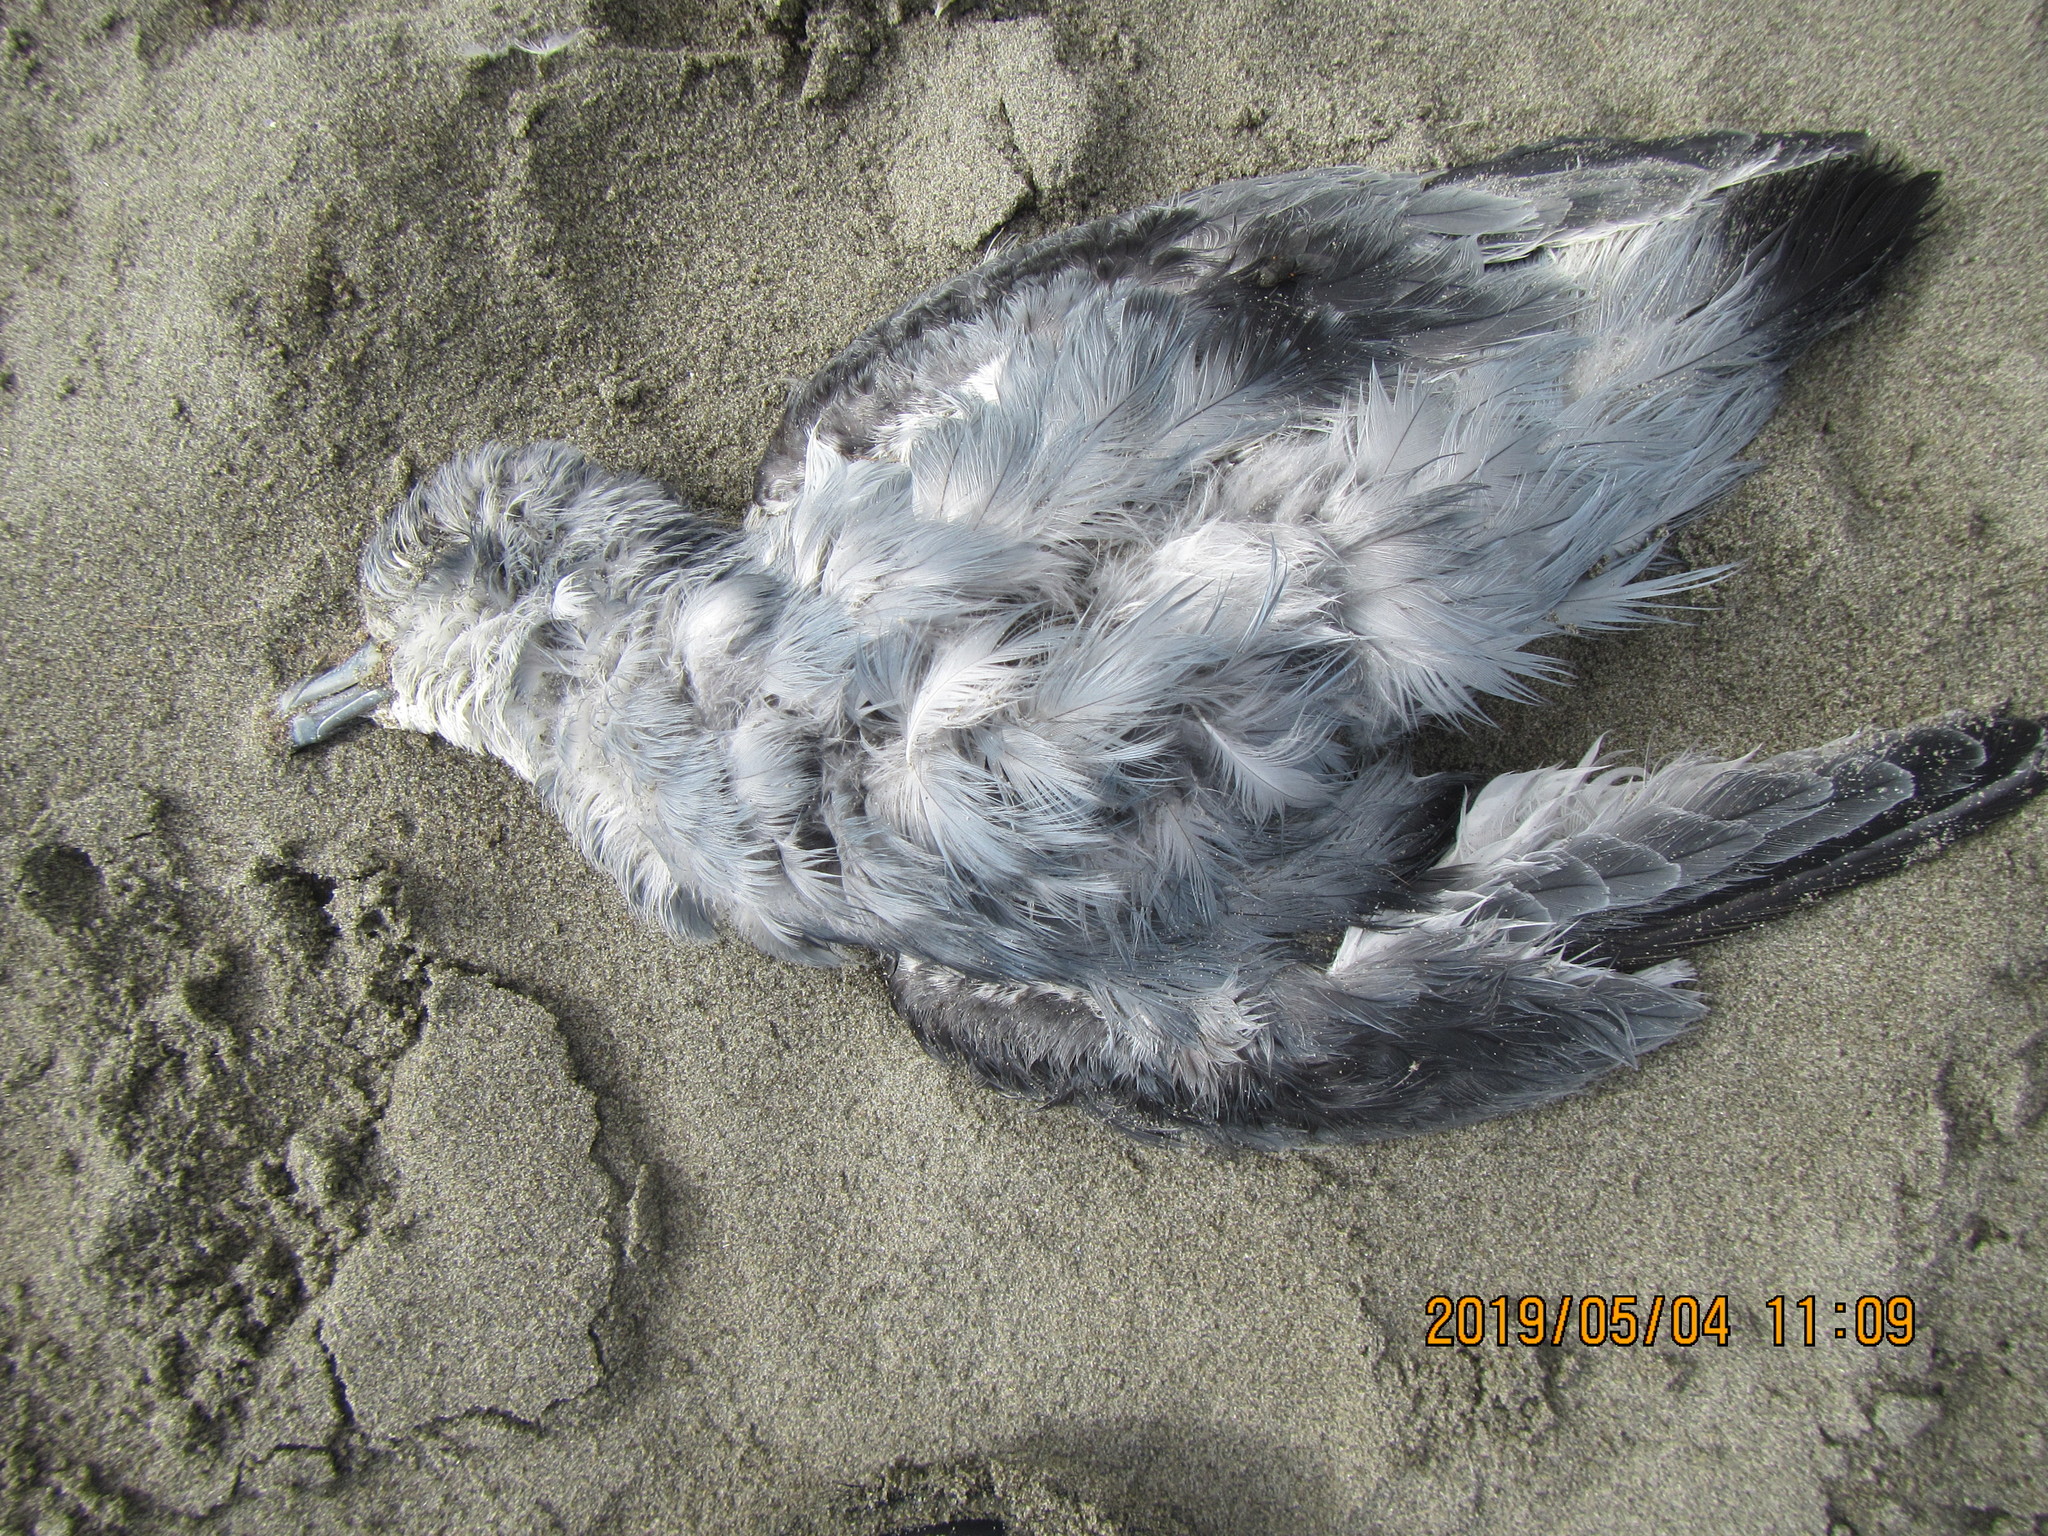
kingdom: Animalia
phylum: Chordata
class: Aves
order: Procellariiformes
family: Procellariidae
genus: Pachyptila
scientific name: Pachyptila turtur
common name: Fairy prion
